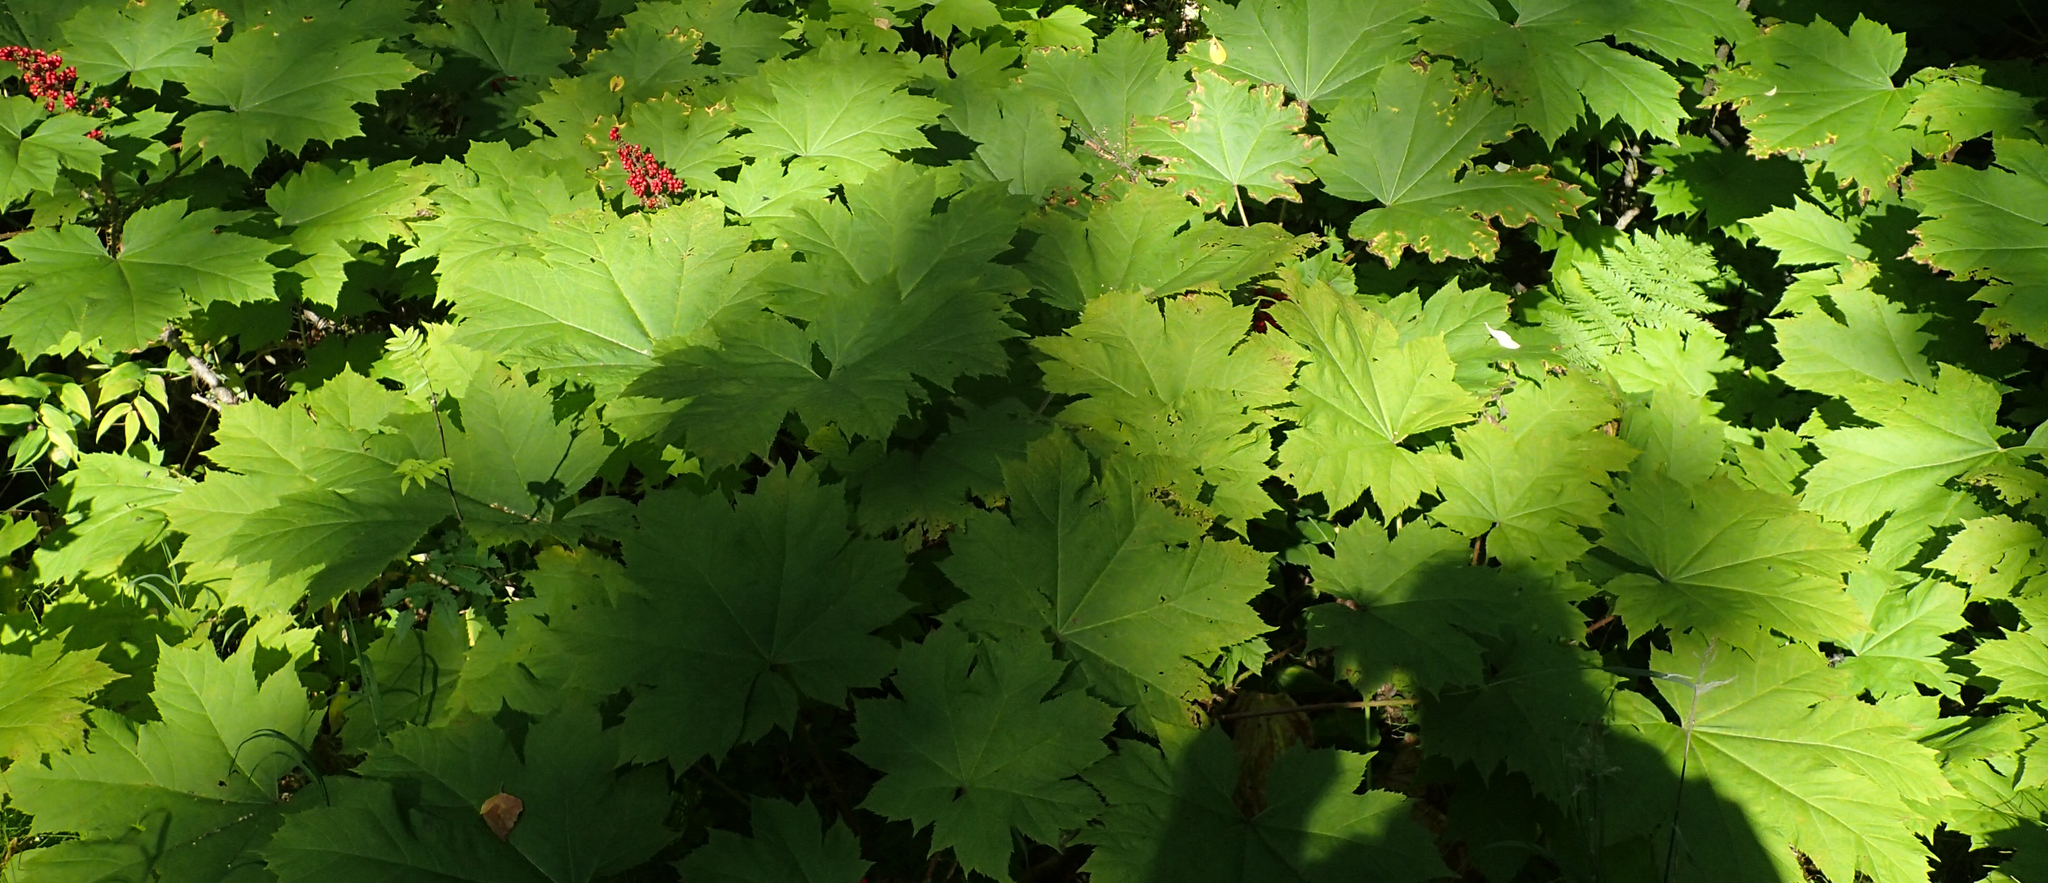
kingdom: Plantae
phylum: Tracheophyta
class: Magnoliopsida
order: Apiales
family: Araliaceae
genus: Oplopanax
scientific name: Oplopanax horridus
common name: Devil's walking-stick
